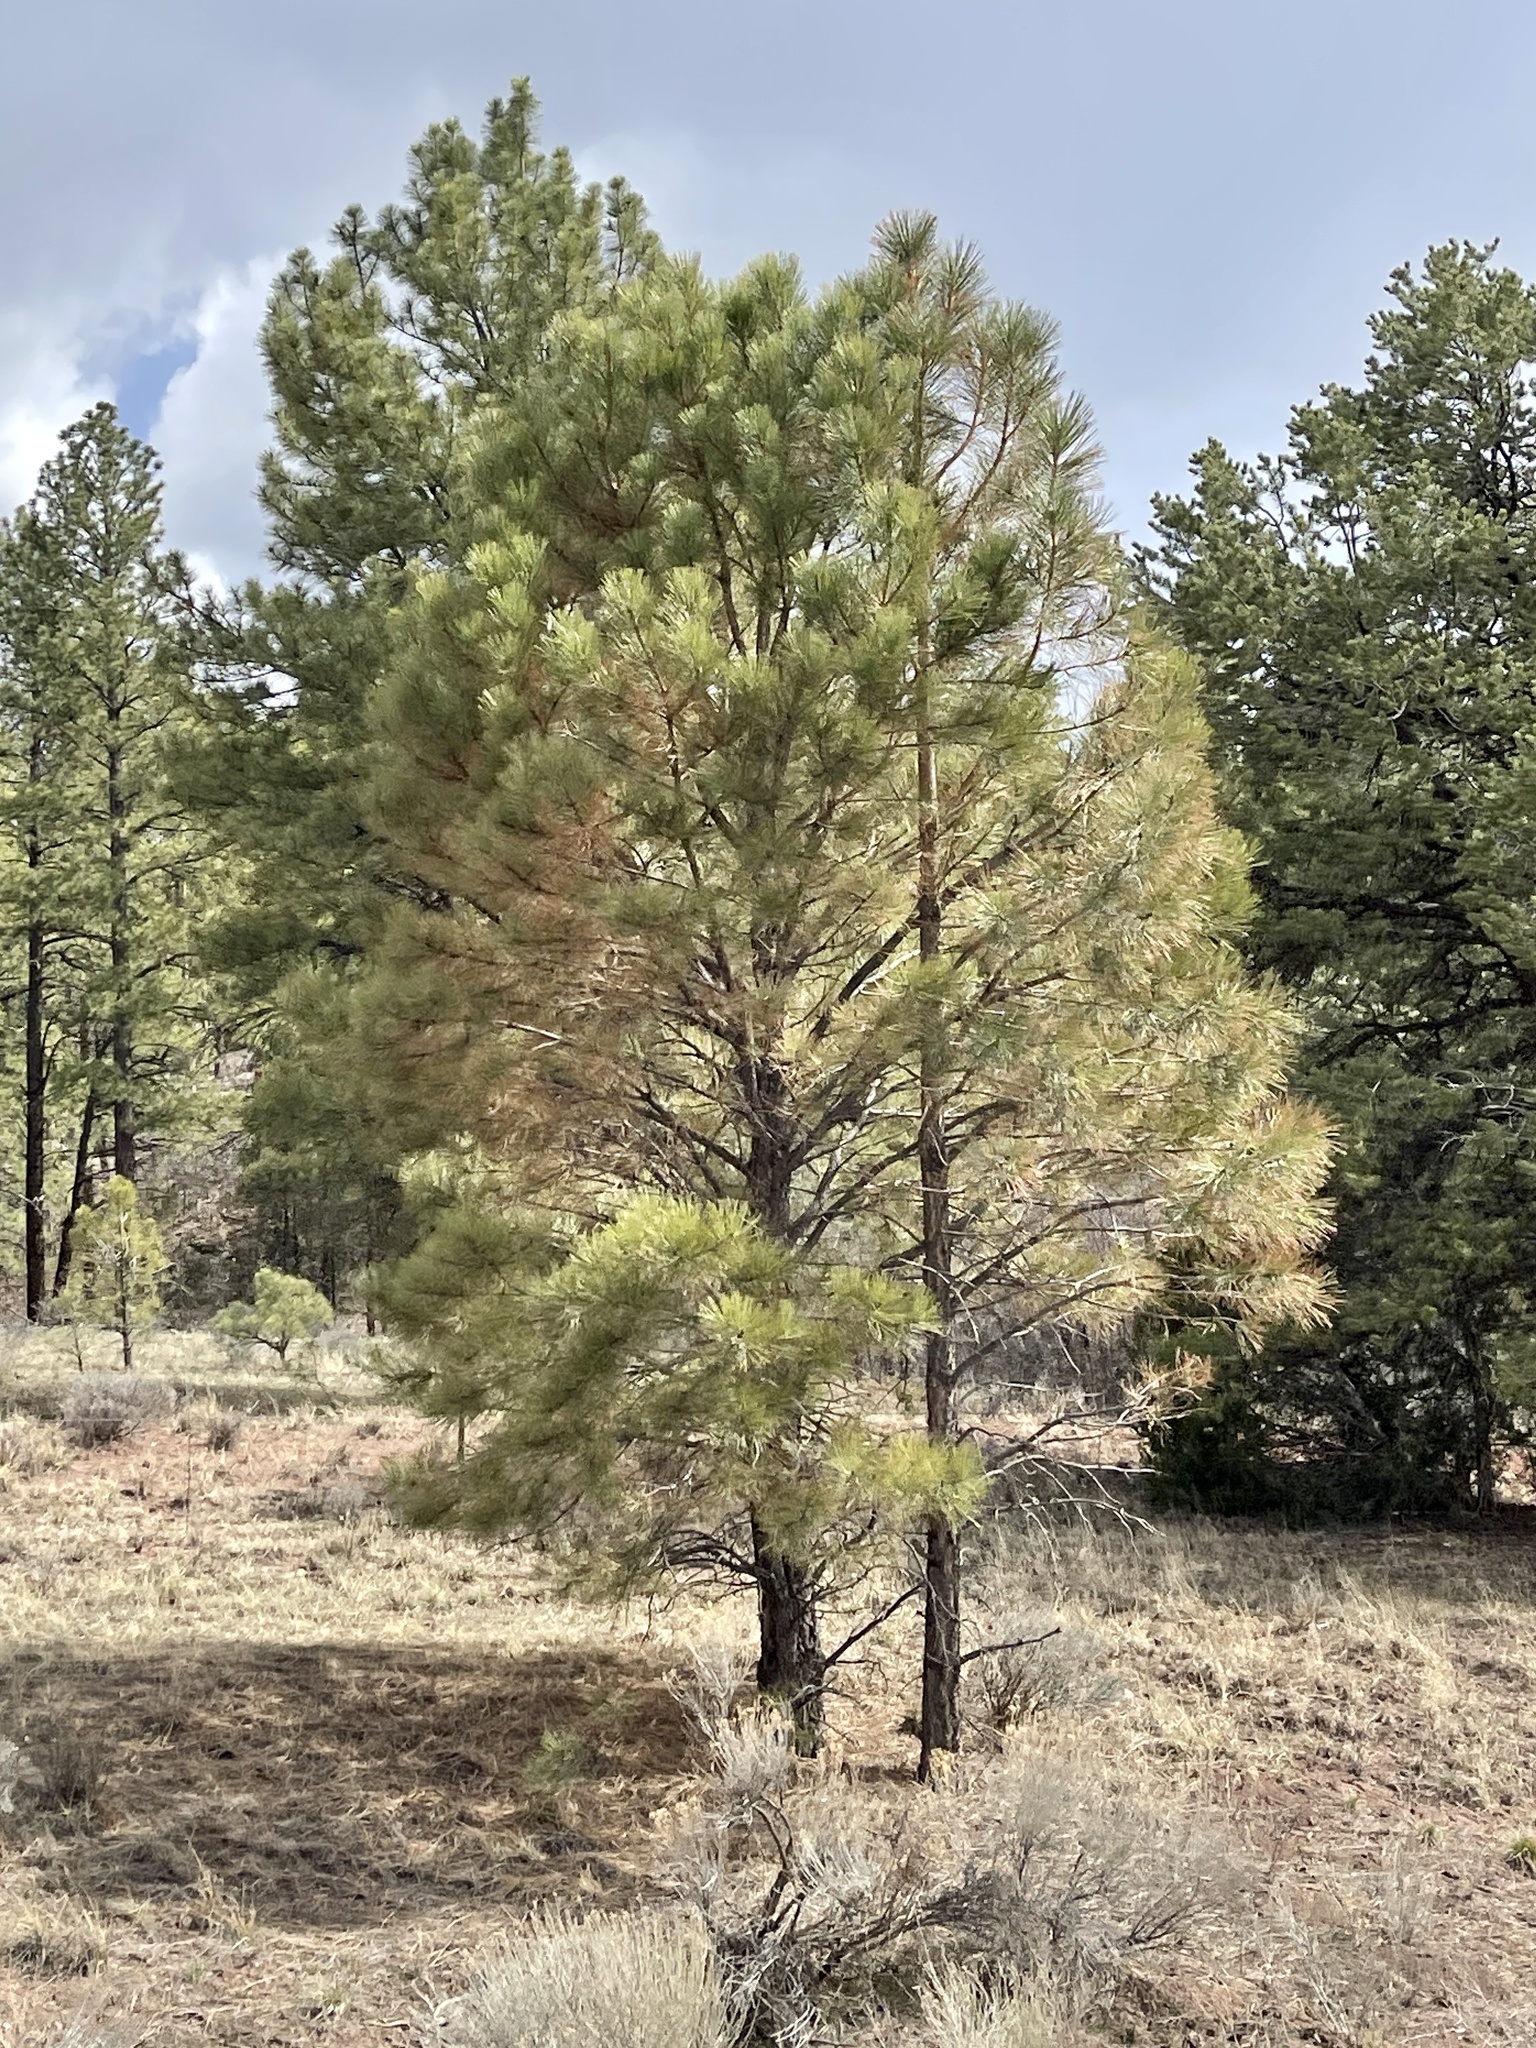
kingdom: Plantae
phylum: Tracheophyta
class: Pinopsida
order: Pinales
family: Pinaceae
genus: Pinus
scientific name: Pinus ponderosa
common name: Western yellow-pine
